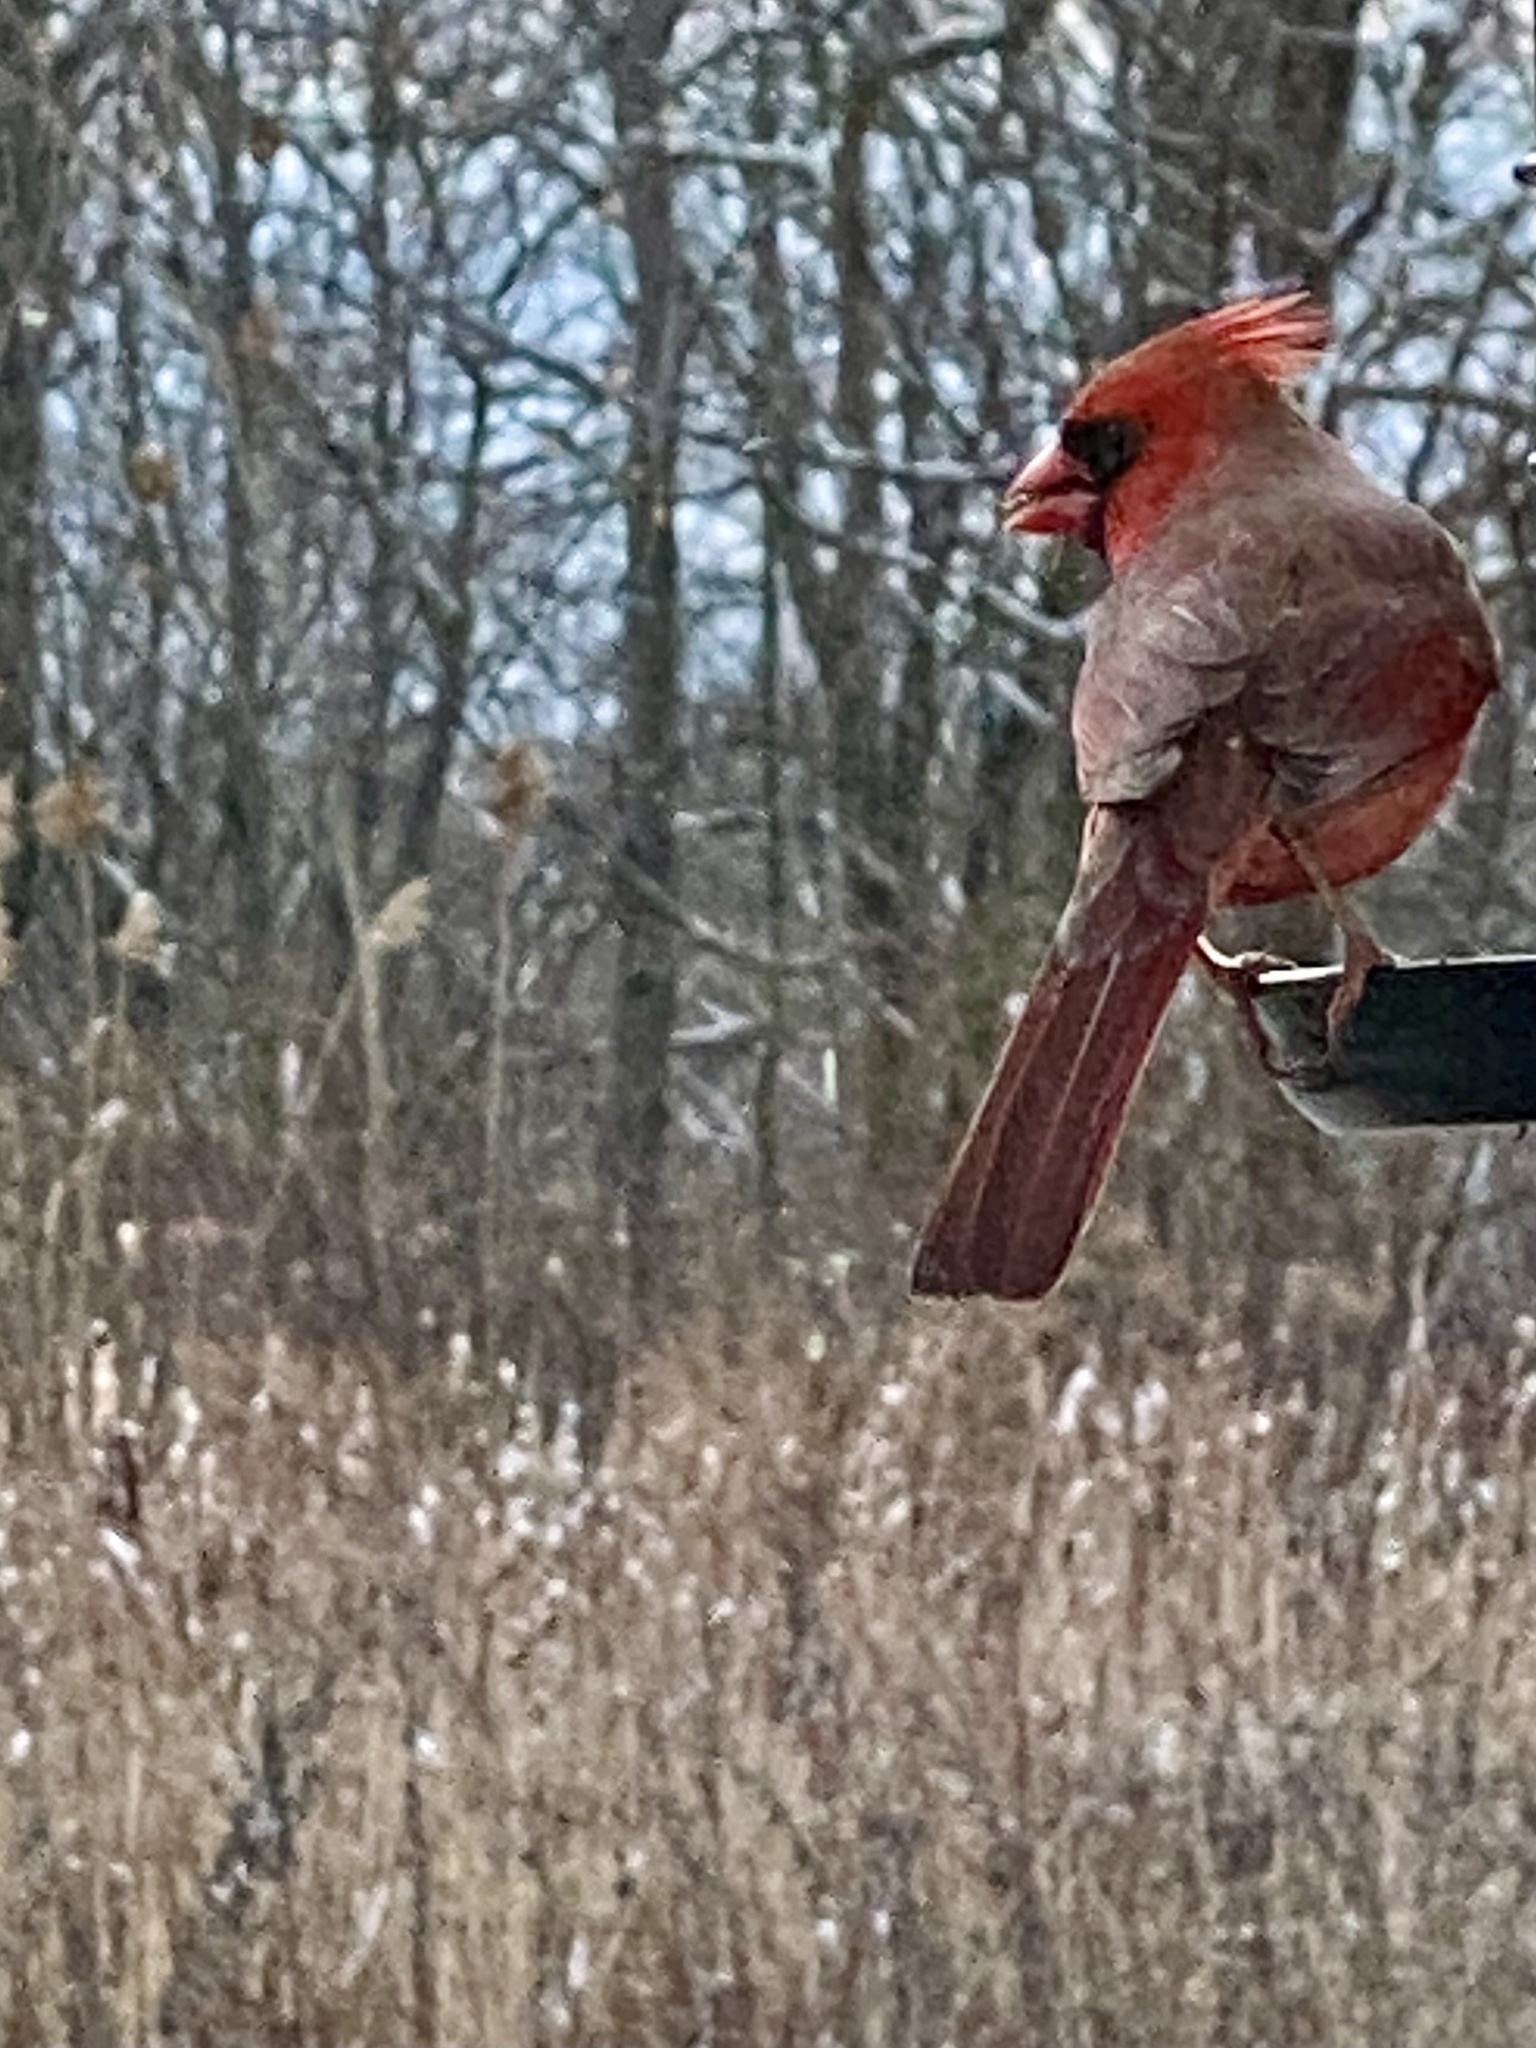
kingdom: Animalia
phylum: Chordata
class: Aves
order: Passeriformes
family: Cardinalidae
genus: Cardinalis
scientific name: Cardinalis cardinalis
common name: Northern cardinal
